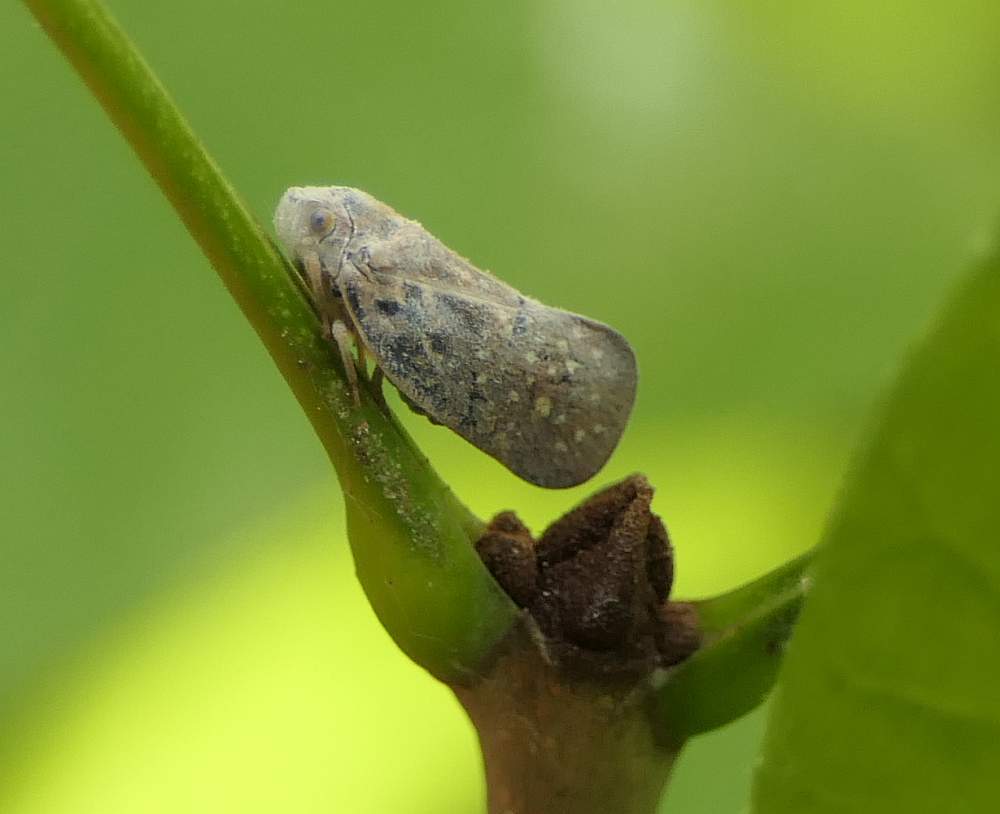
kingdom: Animalia
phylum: Arthropoda
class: Insecta
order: Hemiptera
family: Flatidae
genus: Metcalfa
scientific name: Metcalfa pruinosa
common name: Citrus flatid planthopper
